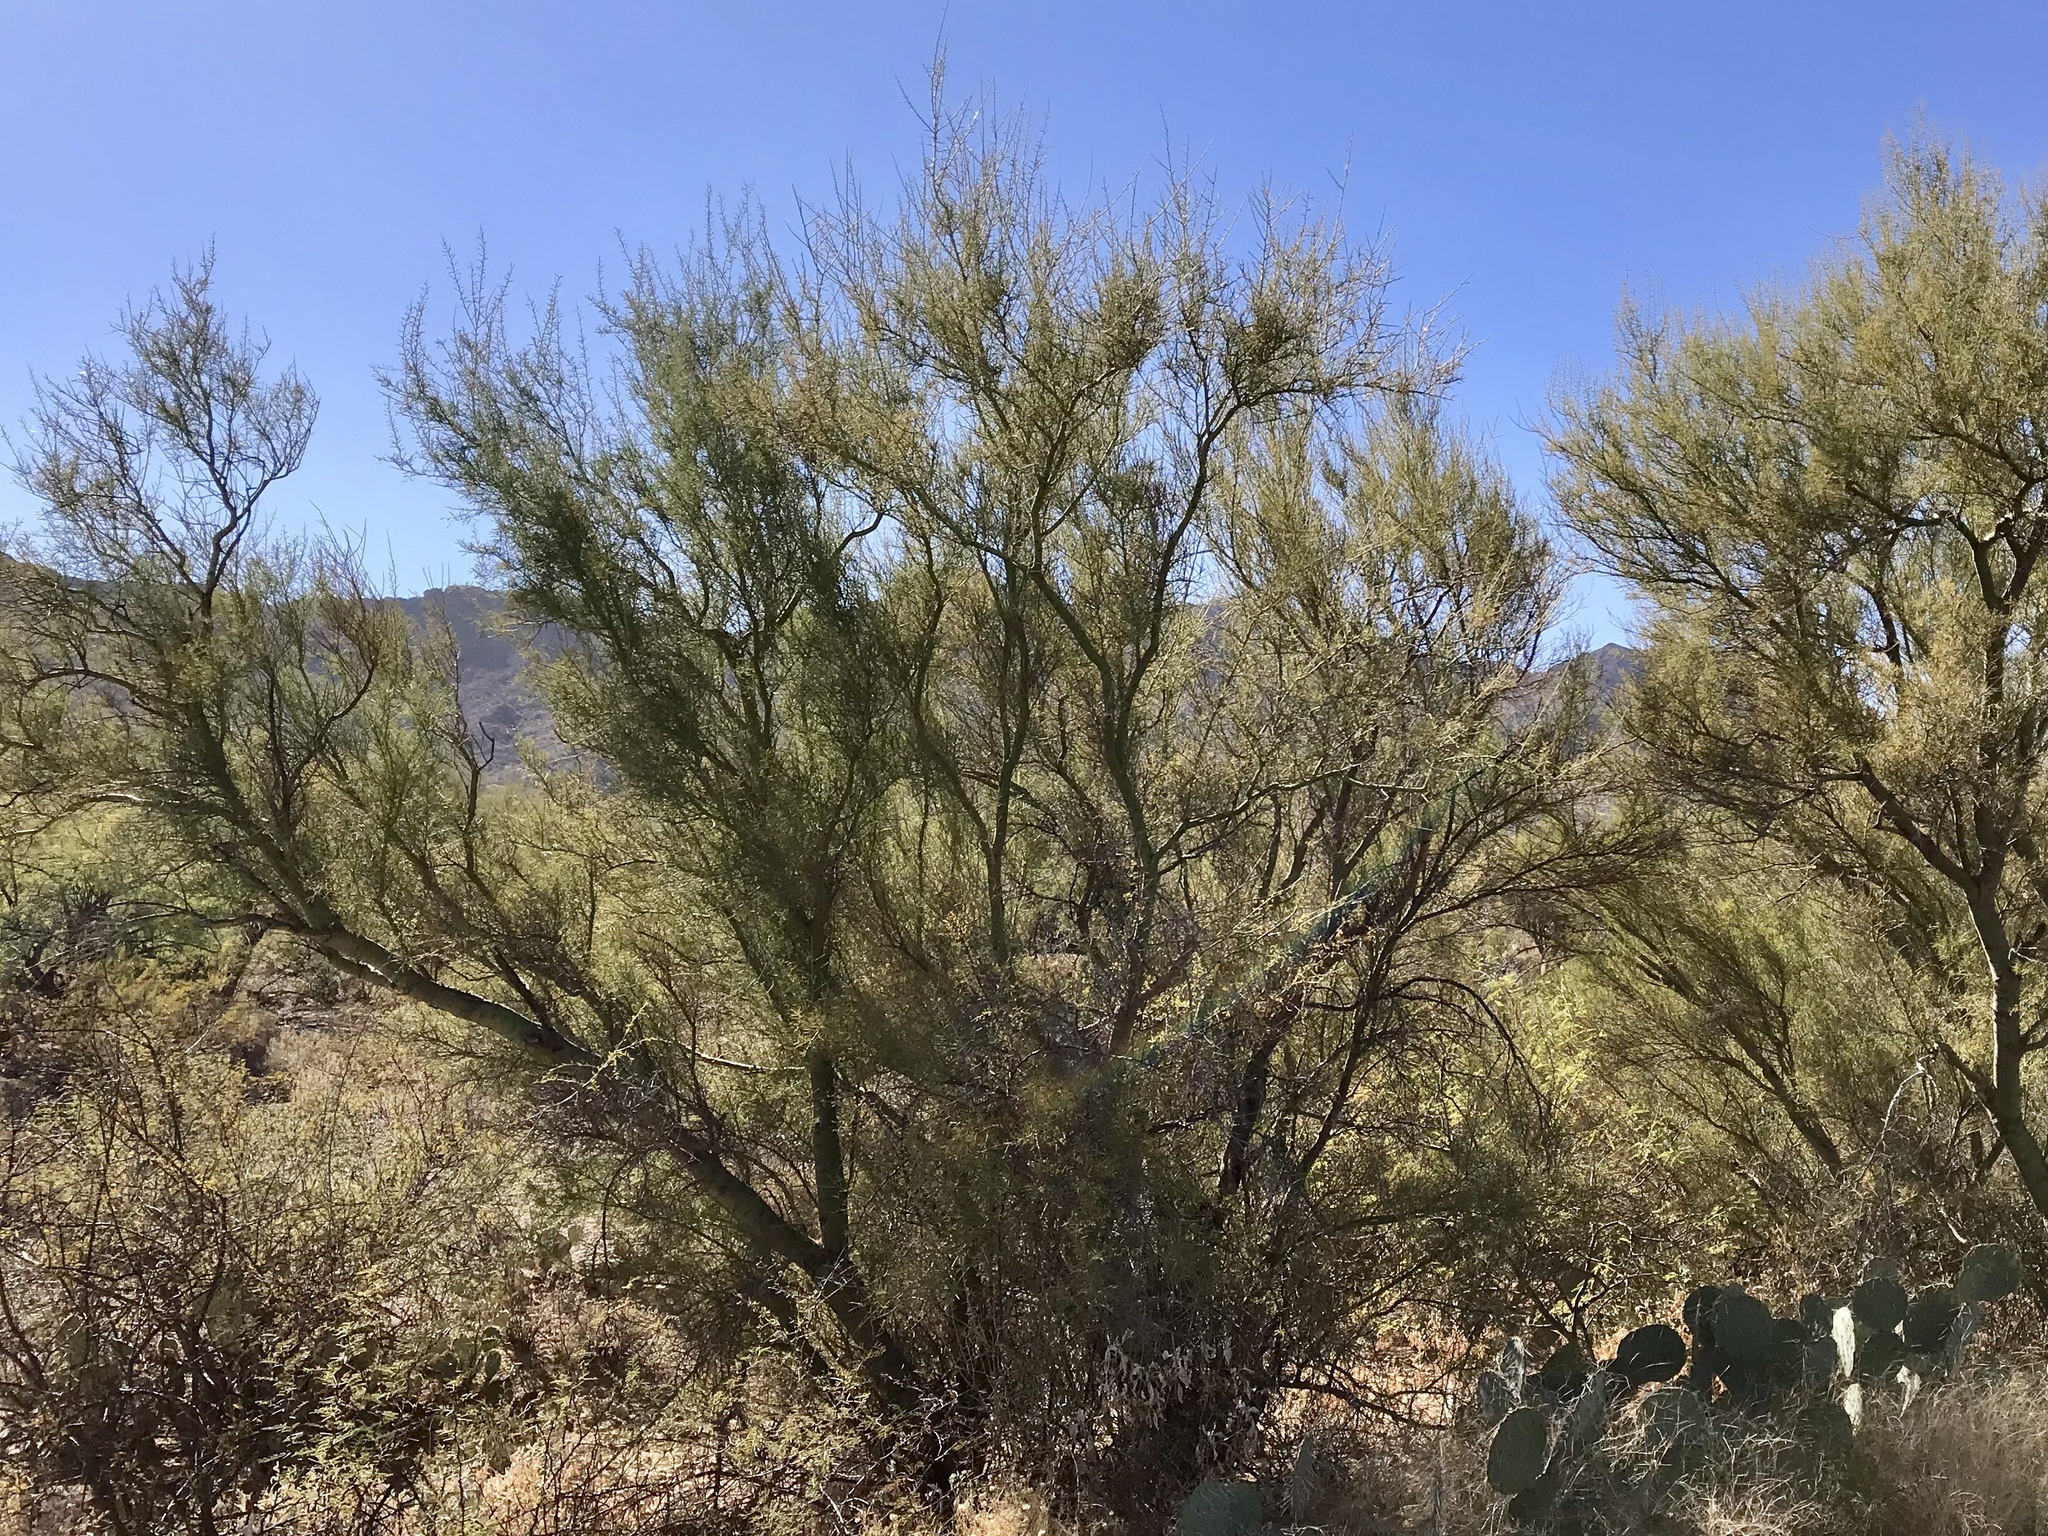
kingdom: Plantae
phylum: Tracheophyta
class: Magnoliopsida
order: Fabales
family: Fabaceae
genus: Parkinsonia
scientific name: Parkinsonia microphylla
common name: Yellow paloverde
